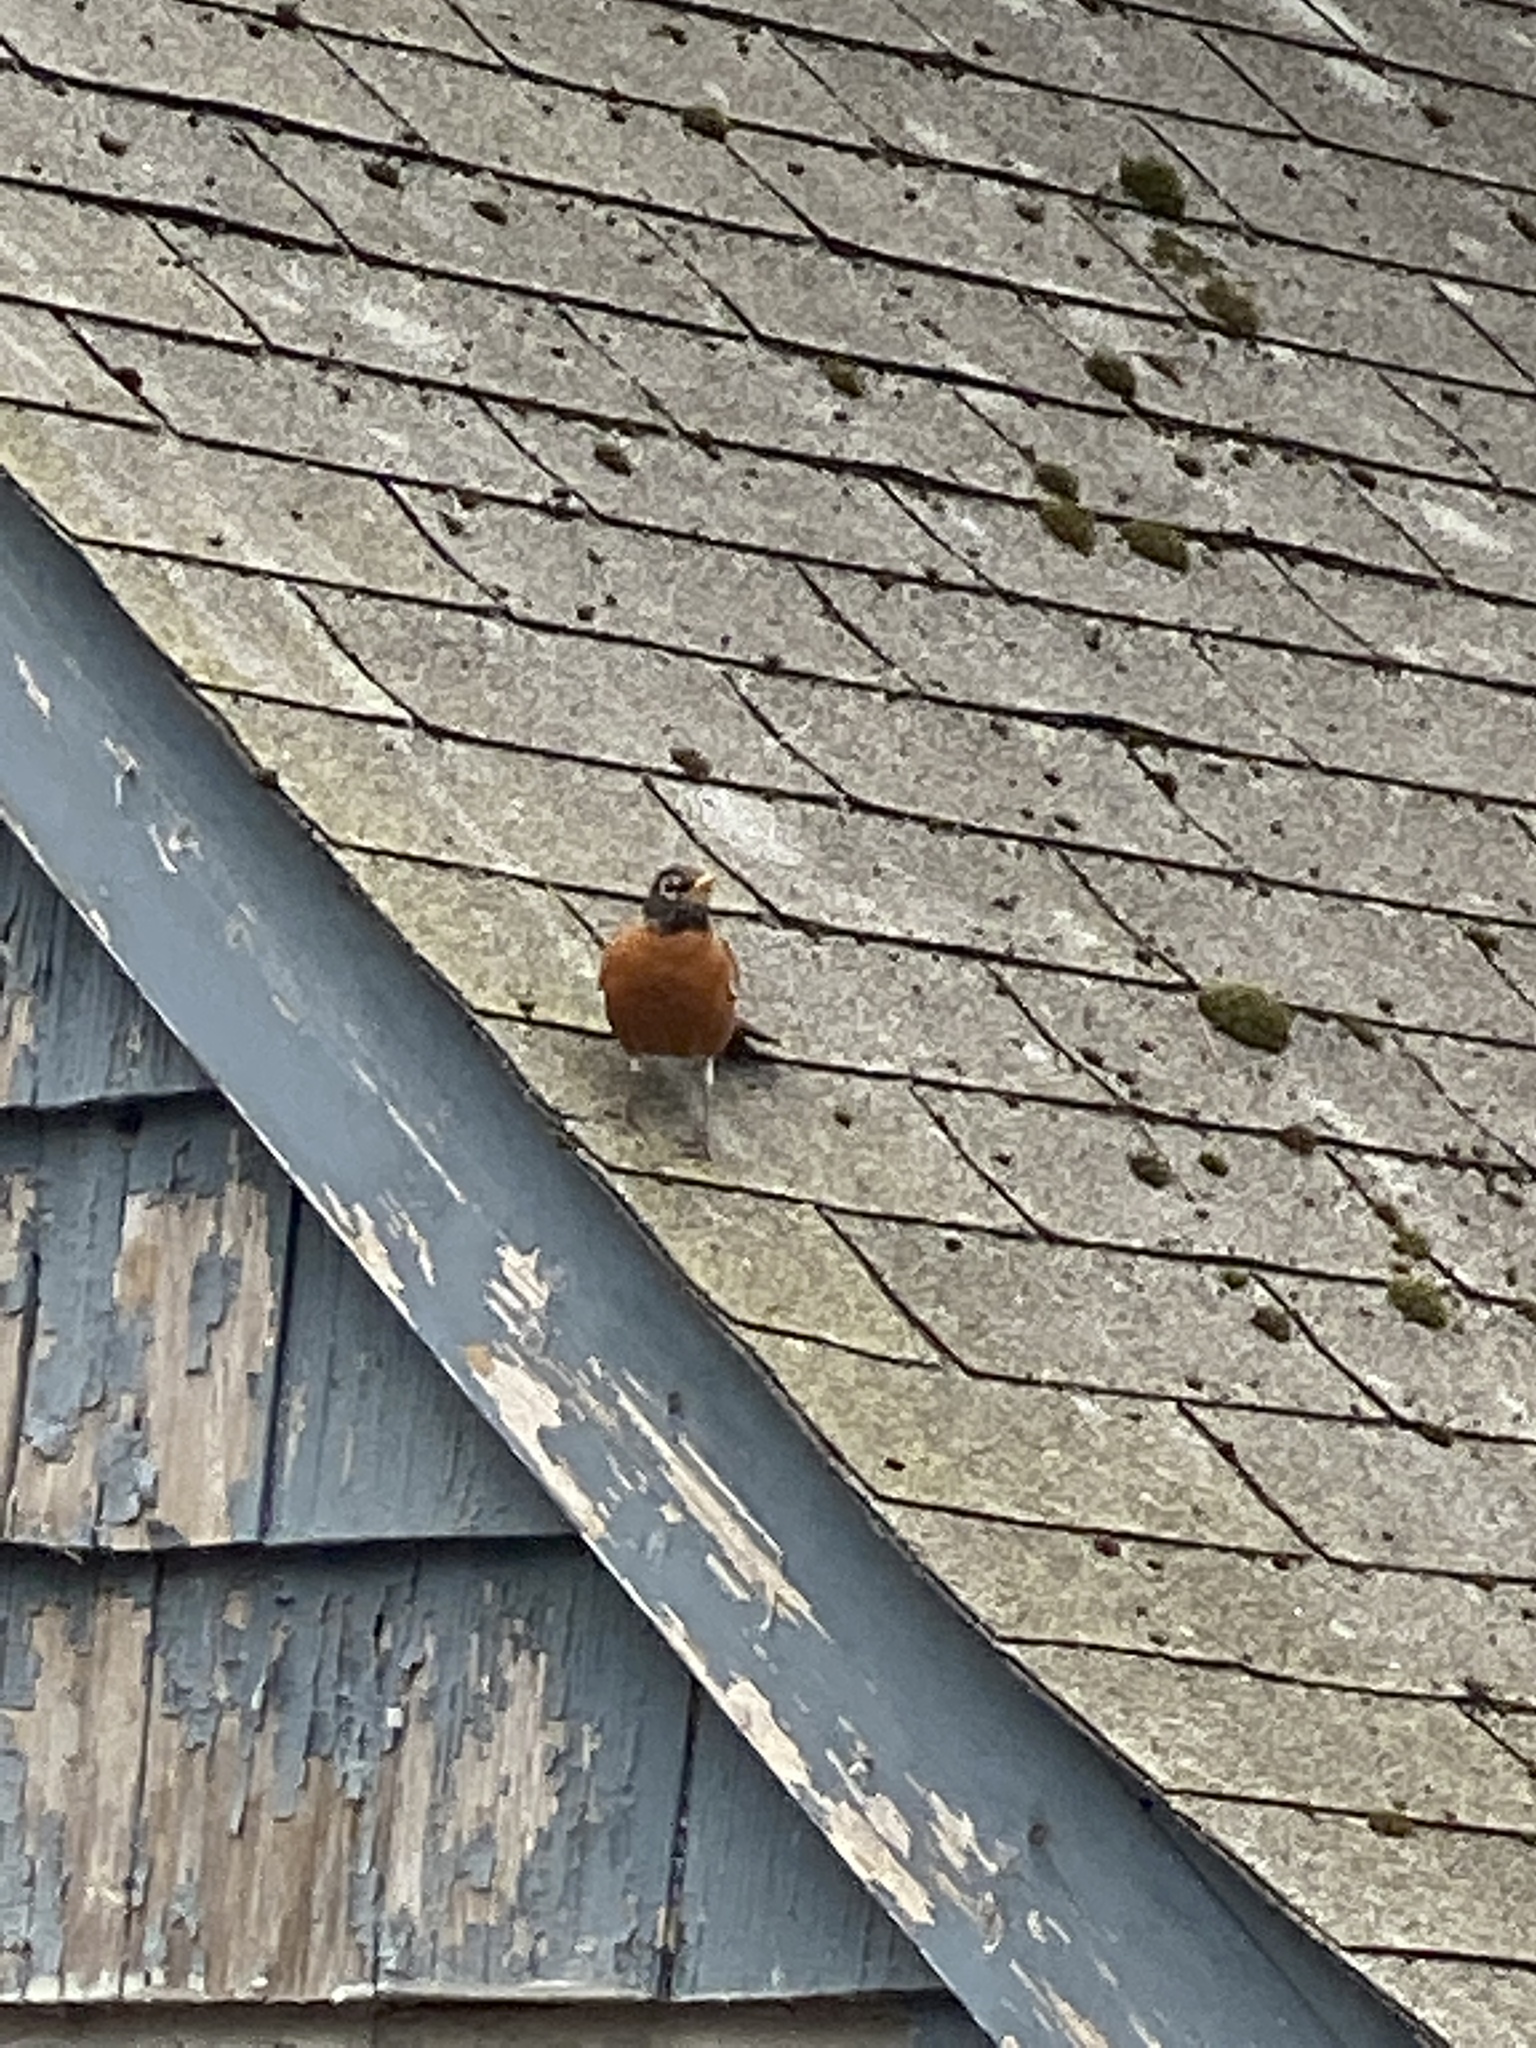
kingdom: Animalia
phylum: Chordata
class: Aves
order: Passeriformes
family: Turdidae
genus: Turdus
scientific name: Turdus migratorius
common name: American robin
